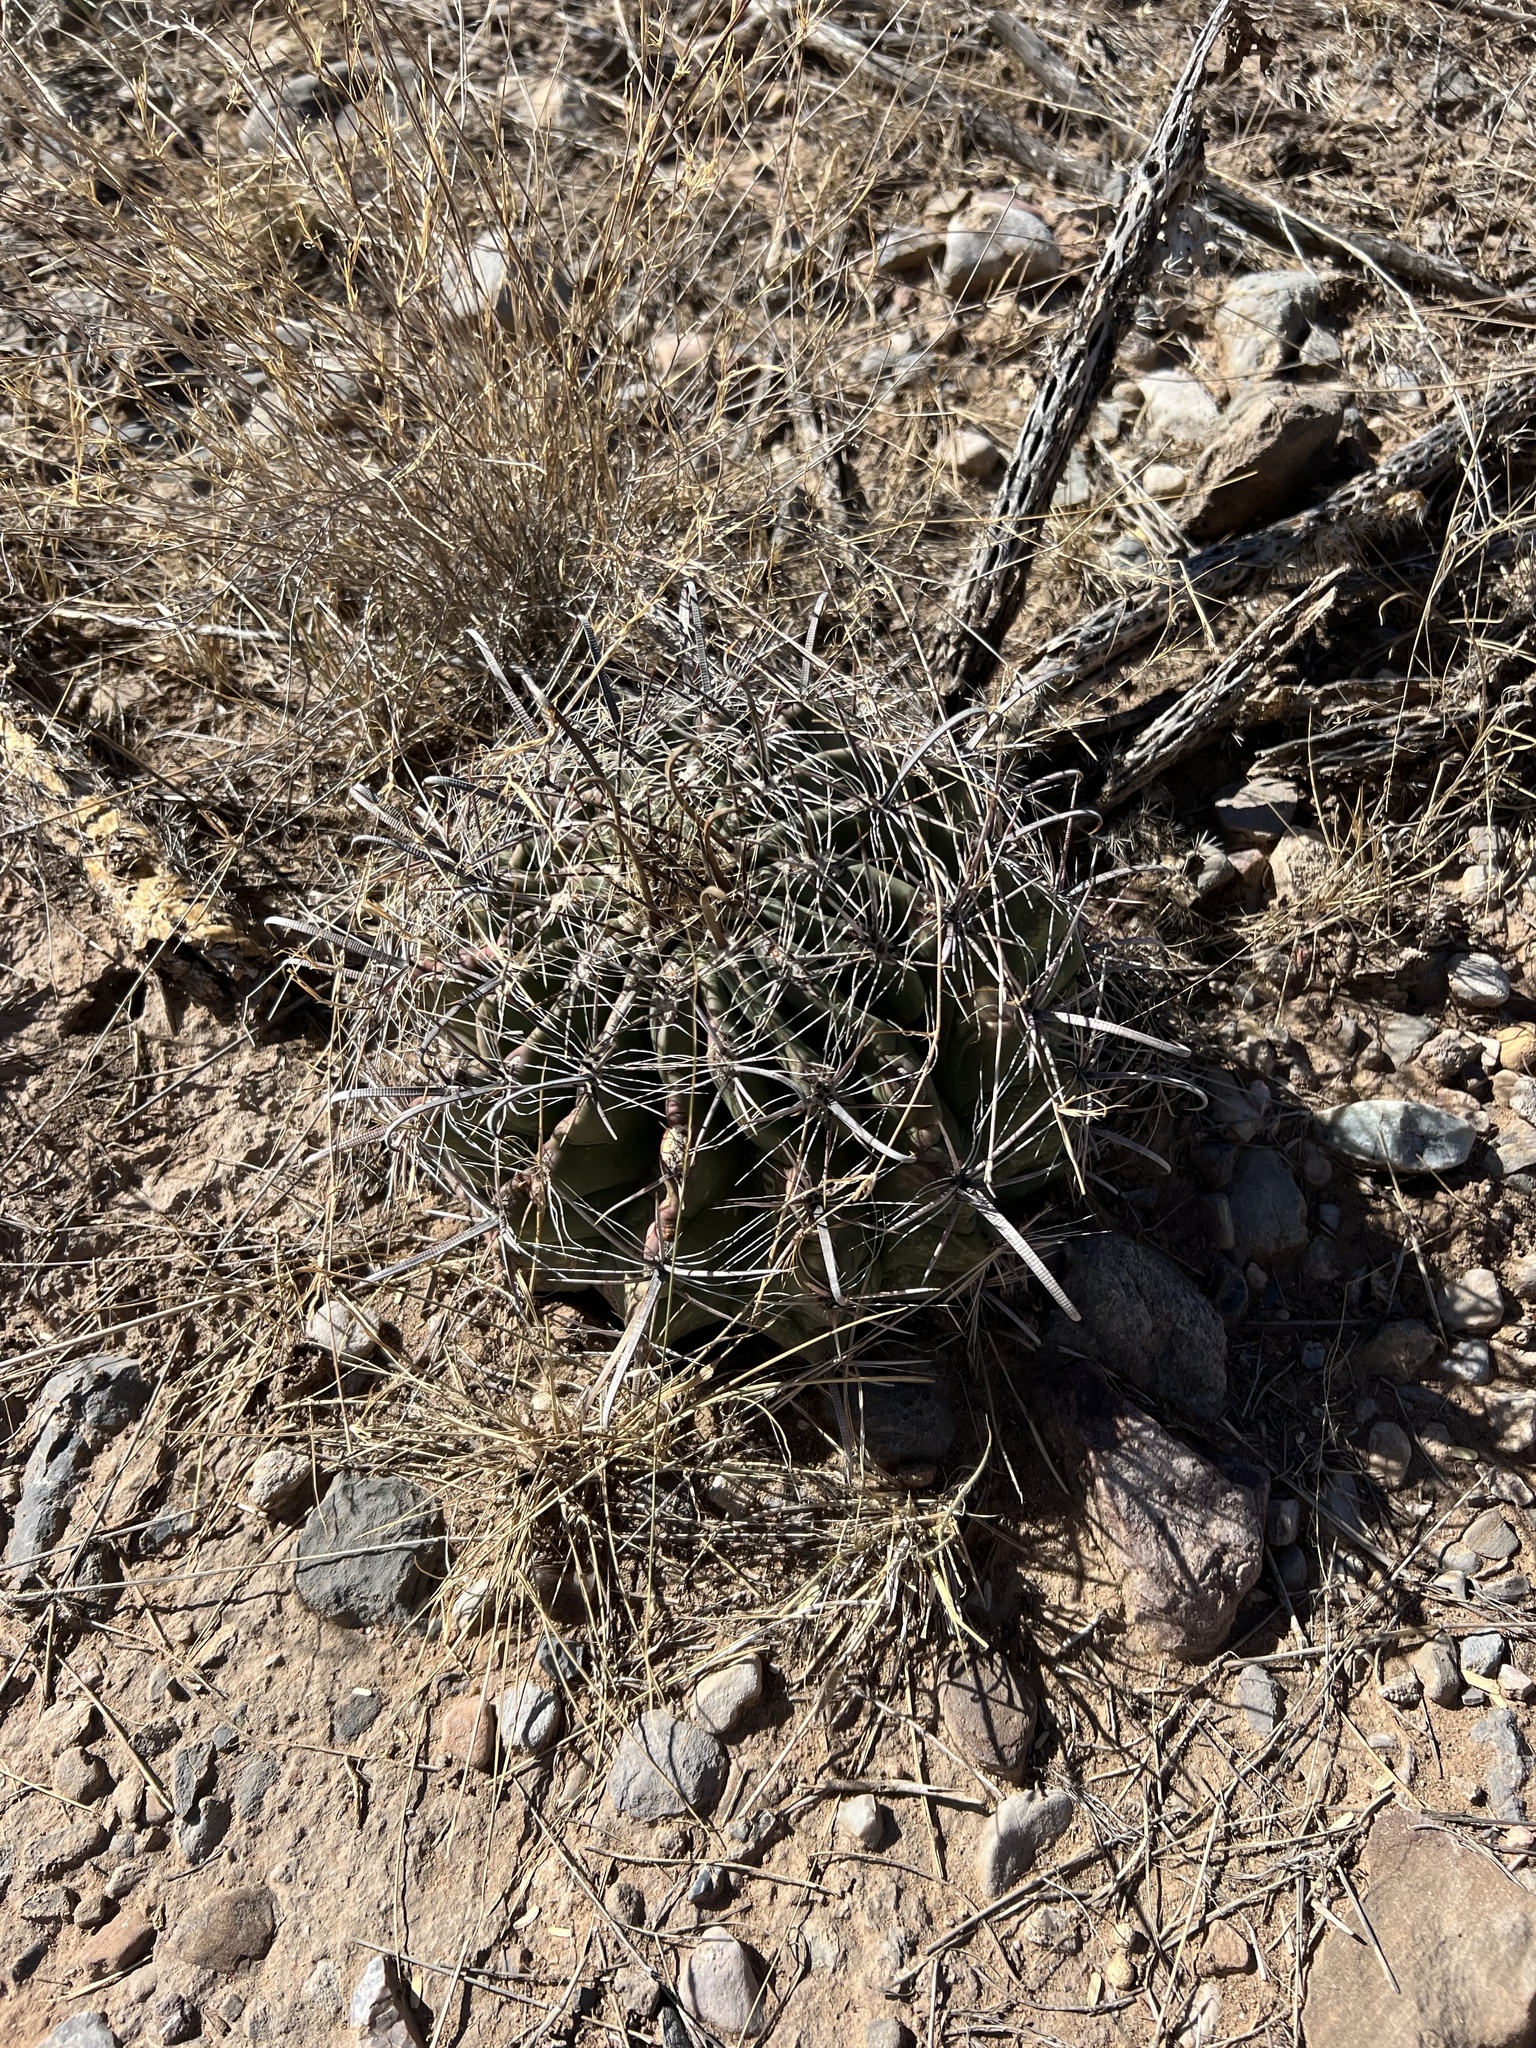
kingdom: Plantae
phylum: Tracheophyta
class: Magnoliopsida
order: Caryophyllales
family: Cactaceae
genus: Ferocactus
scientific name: Ferocactus wislizeni
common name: Candy barrel cactus
